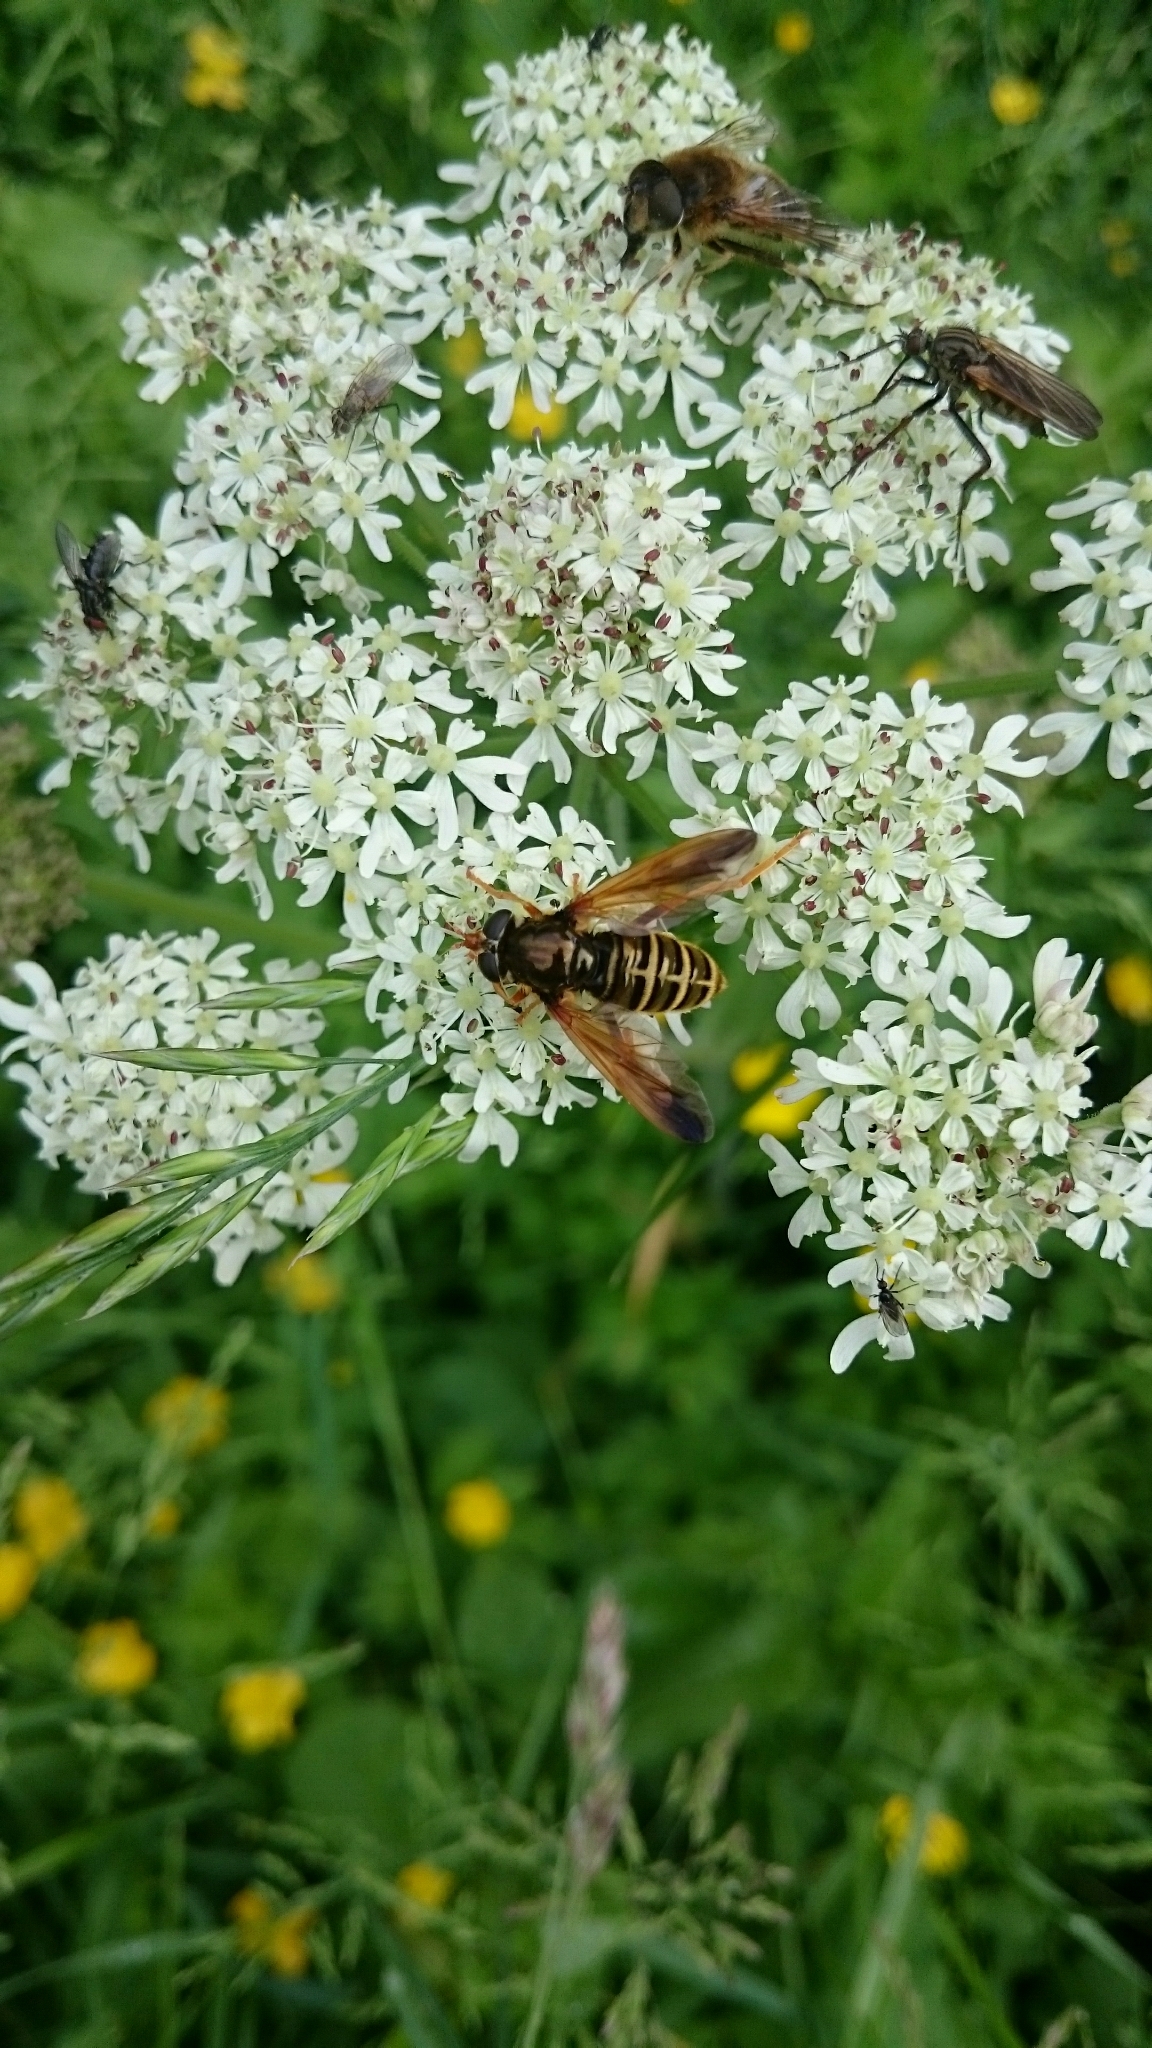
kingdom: Animalia
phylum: Arthropoda
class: Insecta
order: Diptera
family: Syrphidae
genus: Caliprobola
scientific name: Caliprobola speciosa
